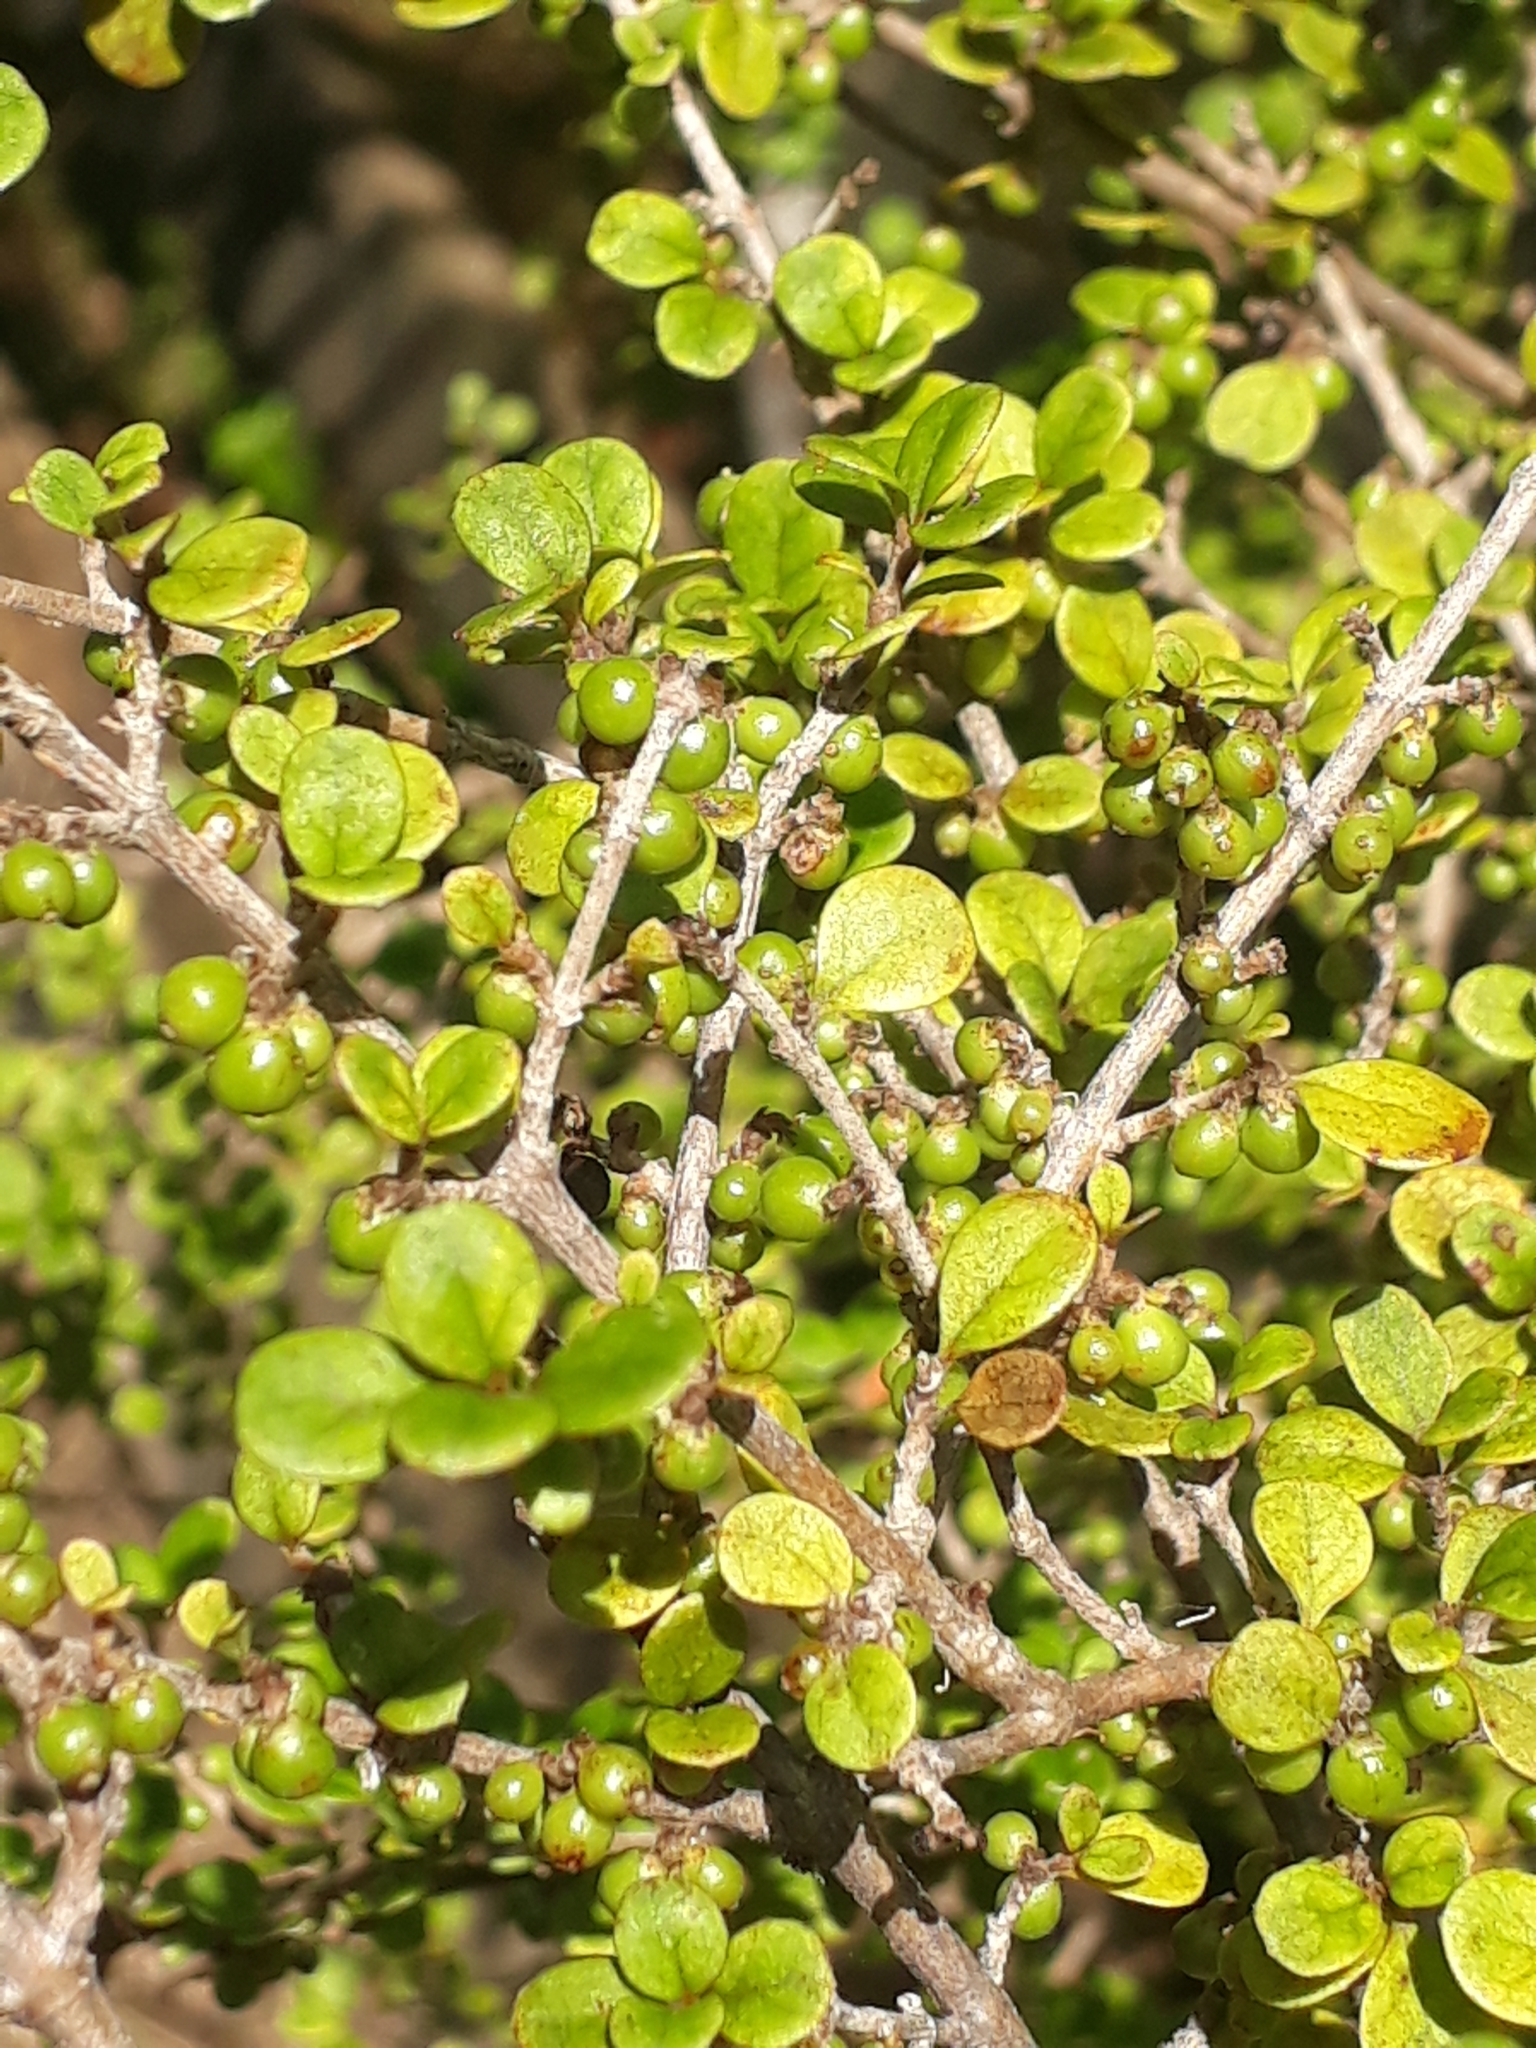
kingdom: Plantae
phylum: Tracheophyta
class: Magnoliopsida
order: Gentianales
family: Rubiaceae
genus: Coprosma
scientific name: Coprosma parviflora
